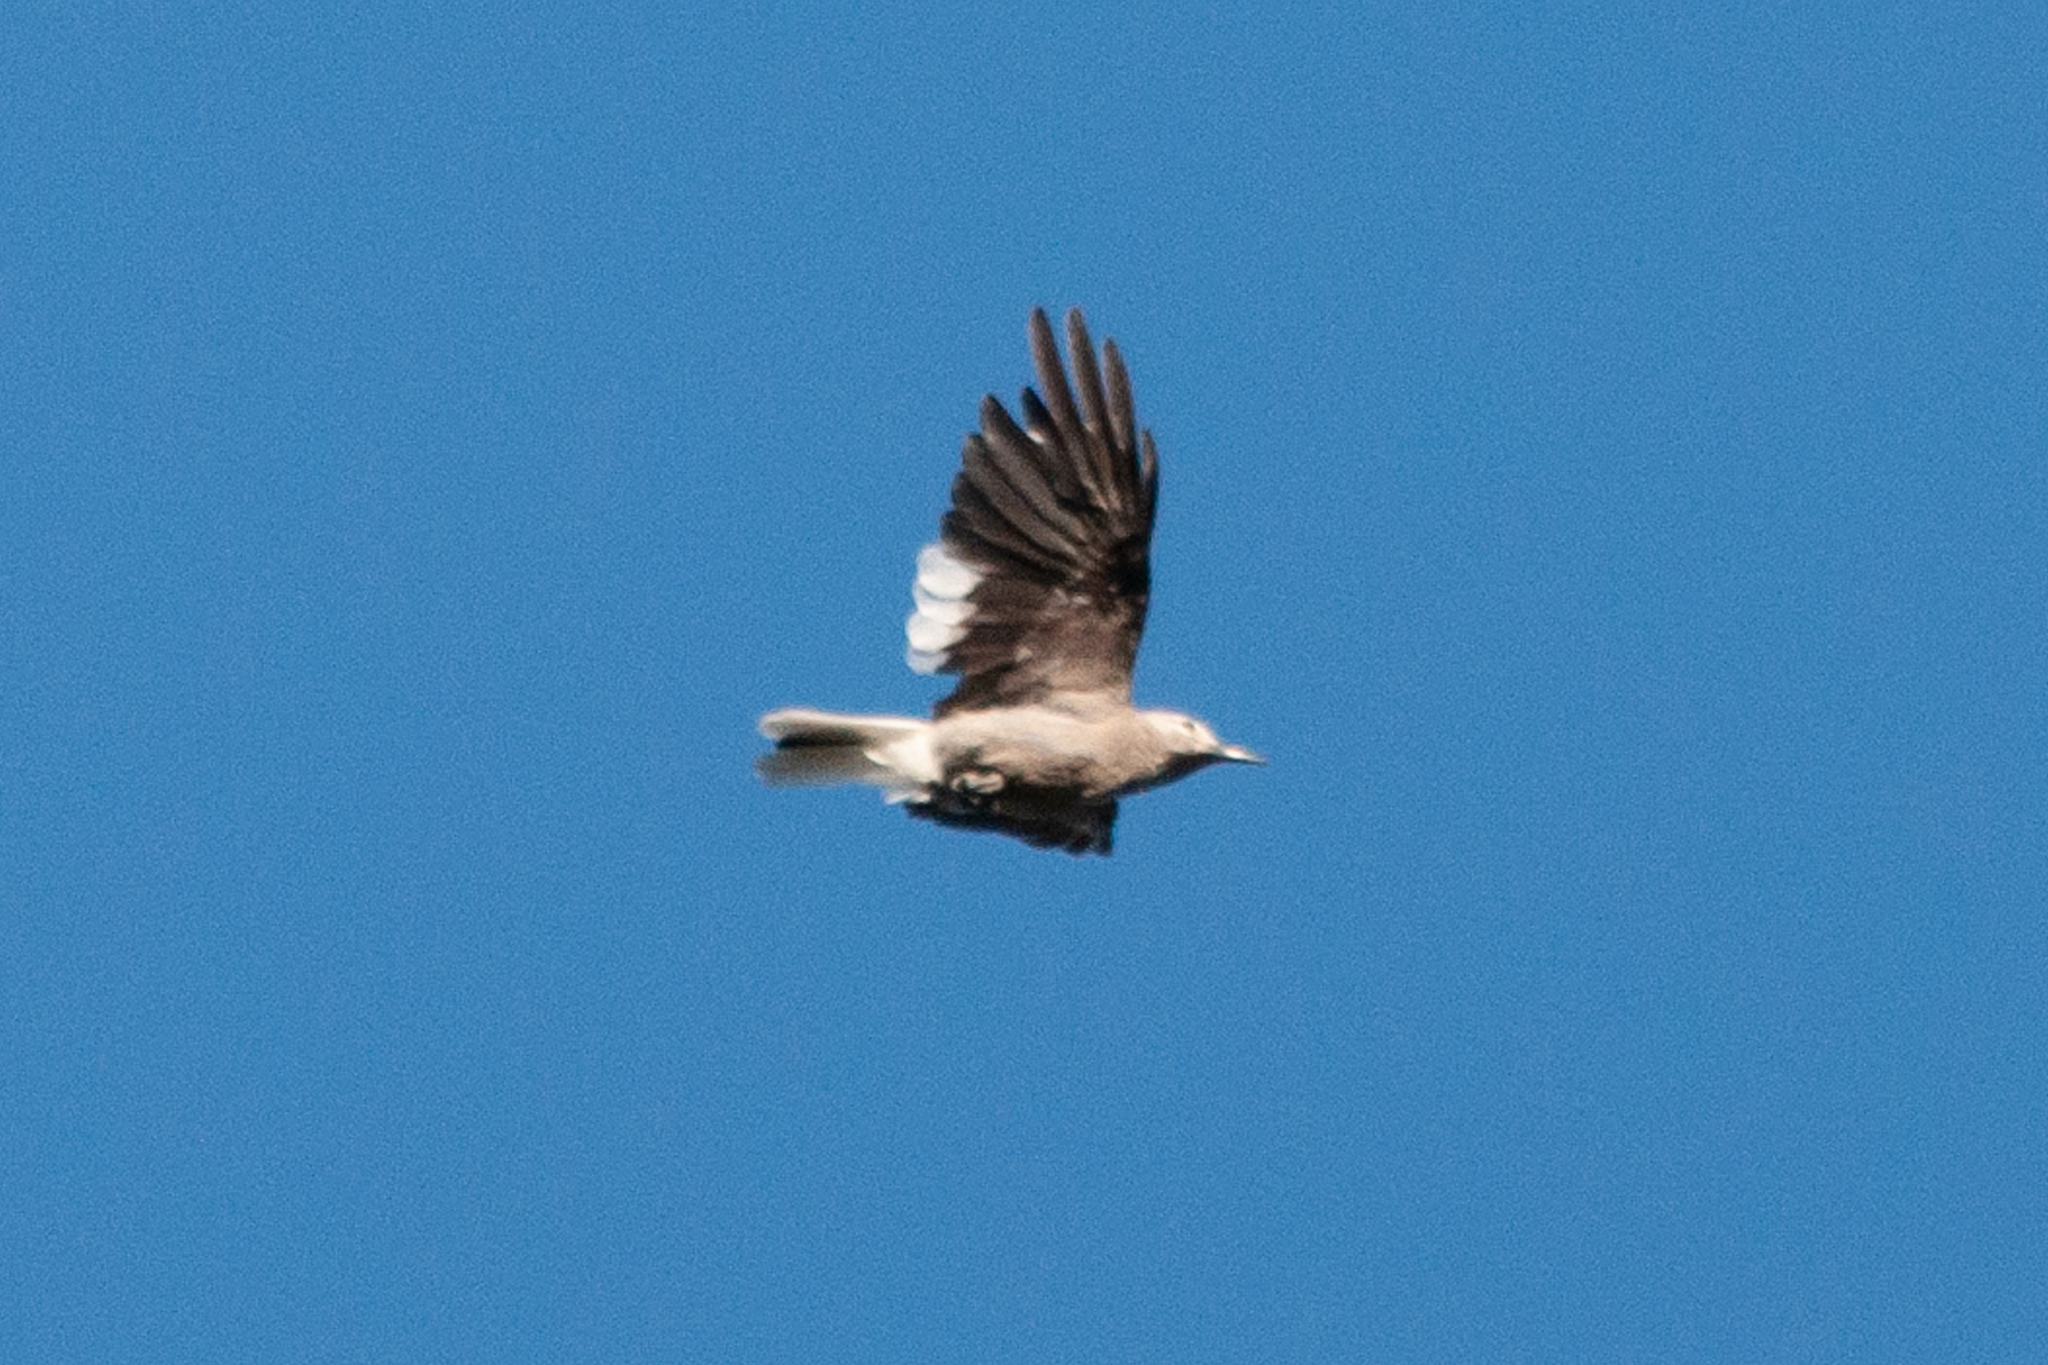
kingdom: Animalia
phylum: Chordata
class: Aves
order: Passeriformes
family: Corvidae
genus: Nucifraga
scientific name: Nucifraga columbiana
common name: Clark's nutcracker
